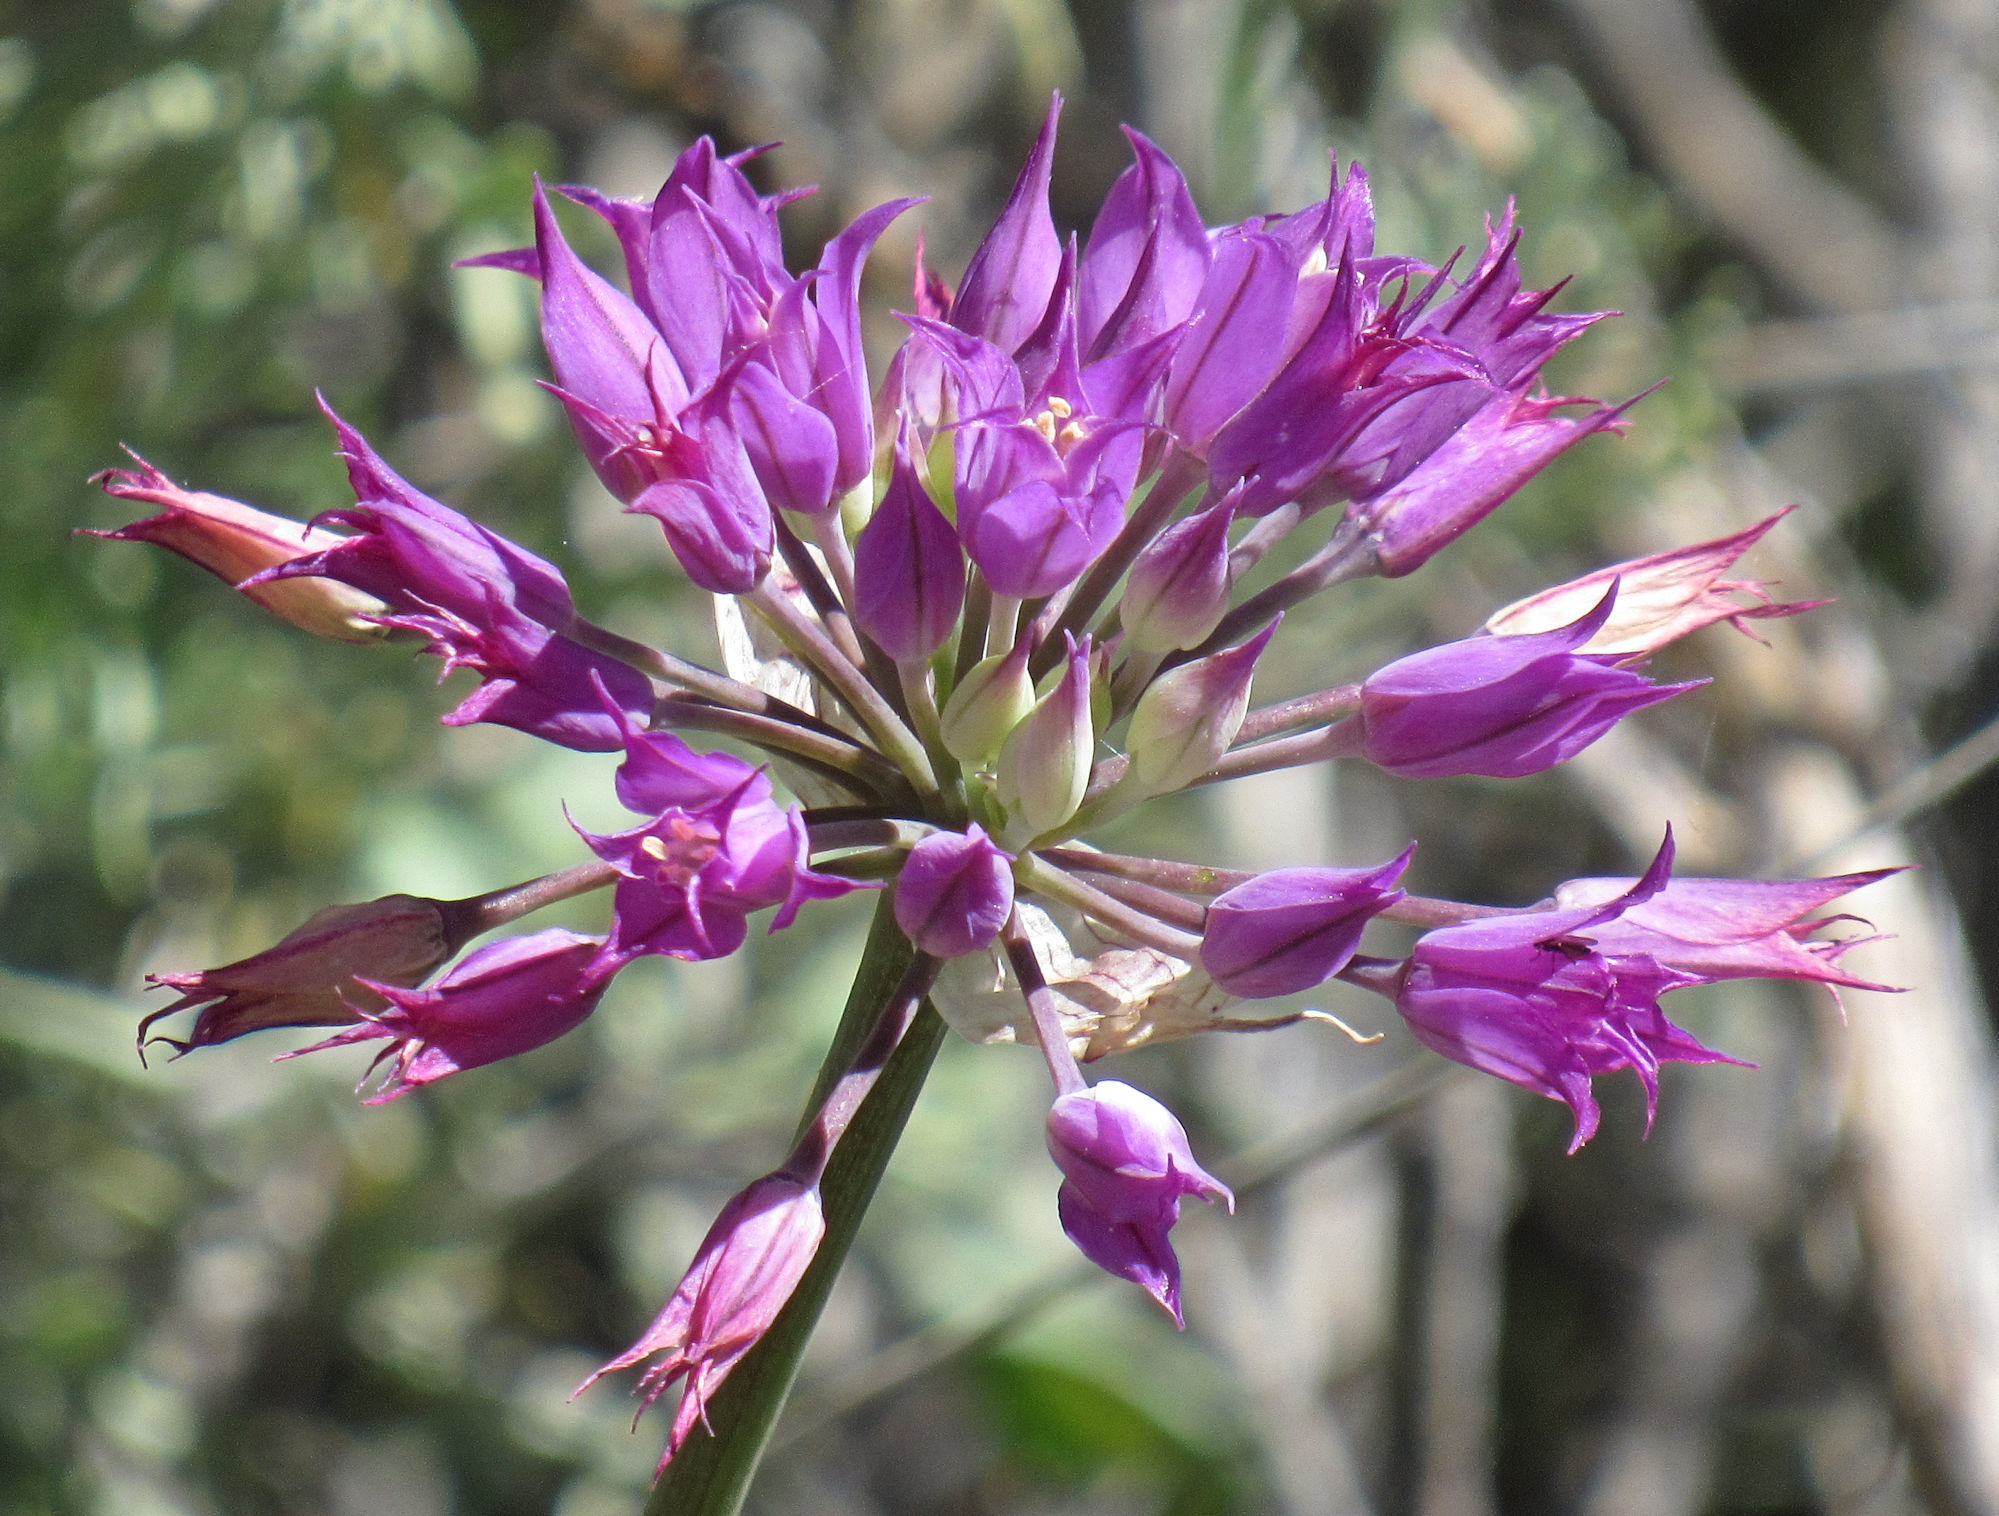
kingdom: Plantae
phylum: Tracheophyta
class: Liliopsida
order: Asparagales
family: Amaryllidaceae
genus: Allium
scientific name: Allium acuminatum
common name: Hooker's onion
